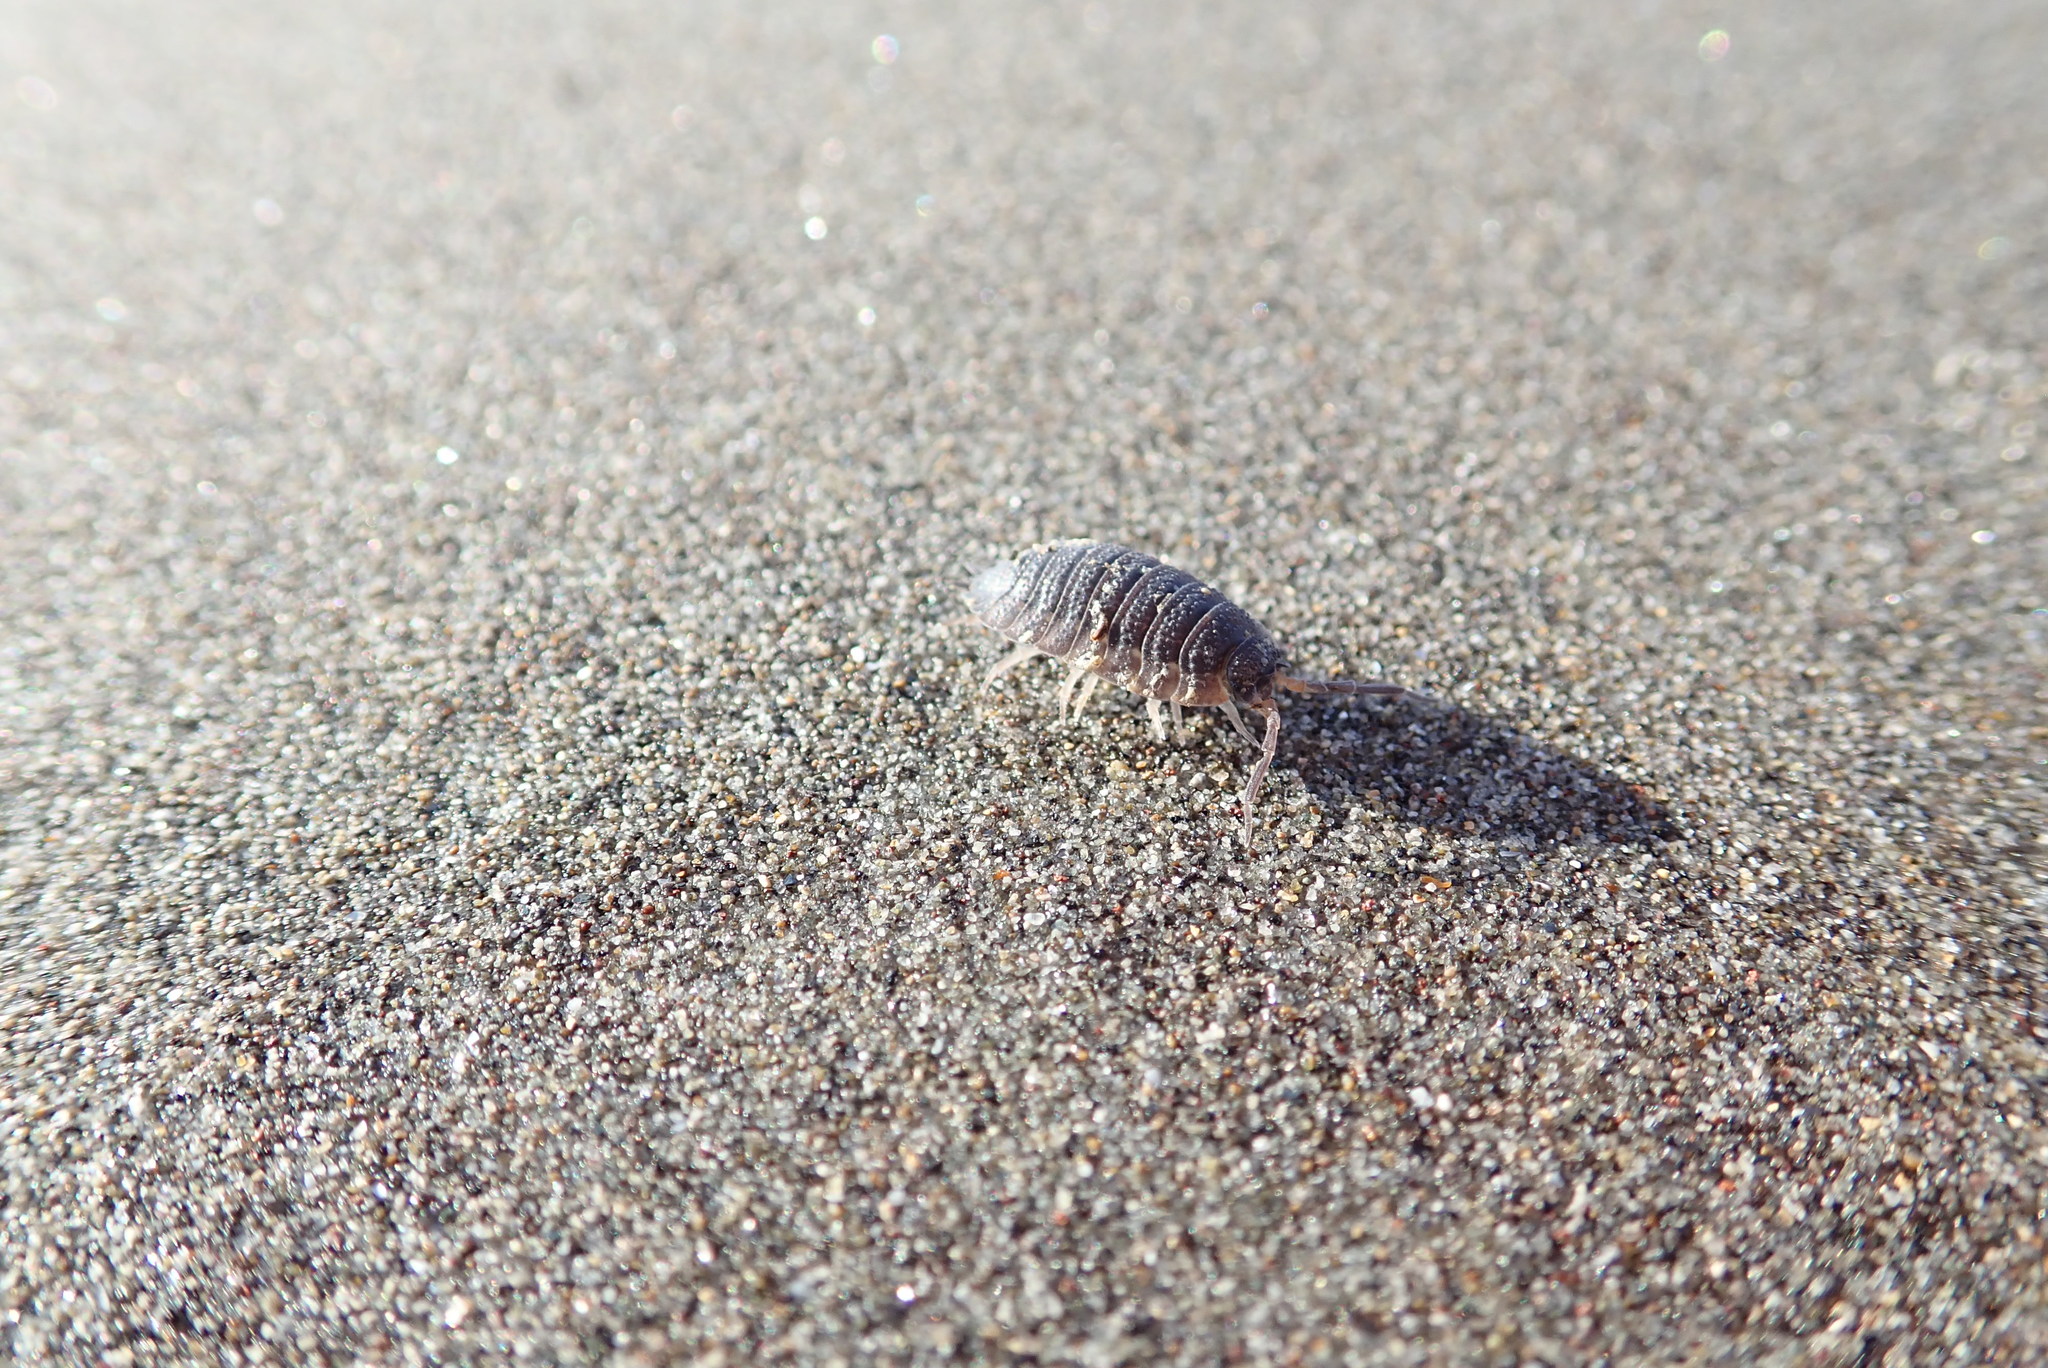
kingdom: Animalia
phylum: Arthropoda
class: Malacostraca
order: Isopoda
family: Porcellionidae
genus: Porcellio
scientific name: Porcellio scaber
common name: Common rough woodlouse
